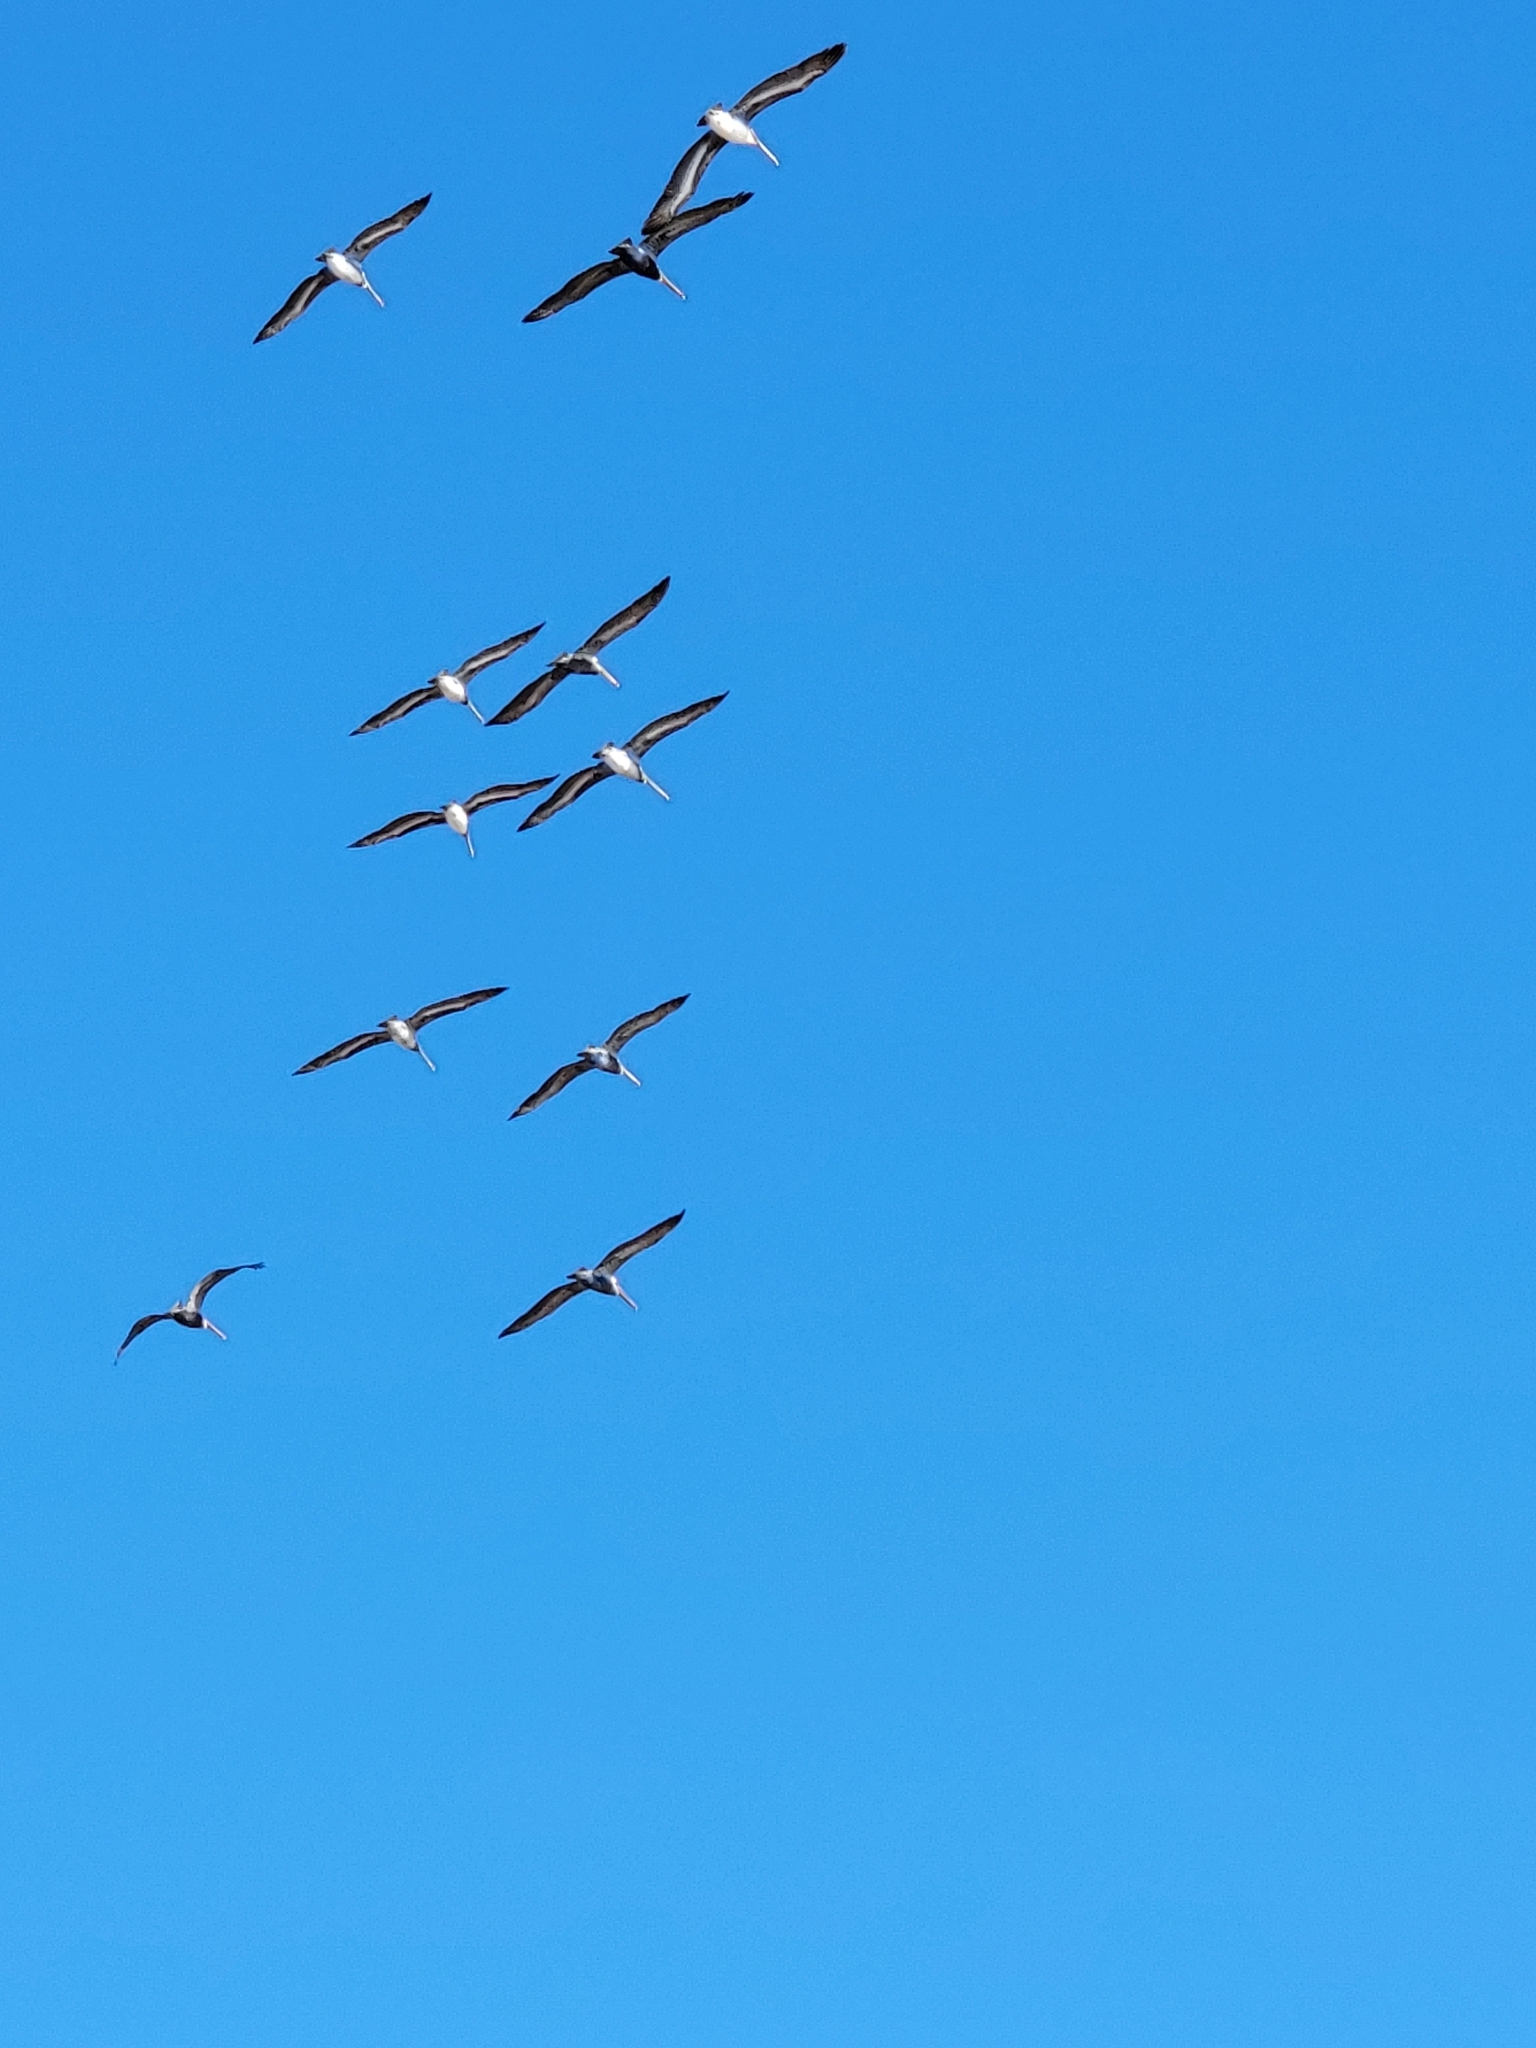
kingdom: Animalia
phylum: Chordata
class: Aves
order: Pelecaniformes
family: Pelecanidae
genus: Pelecanus
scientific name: Pelecanus occidentalis
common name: Brown pelican
